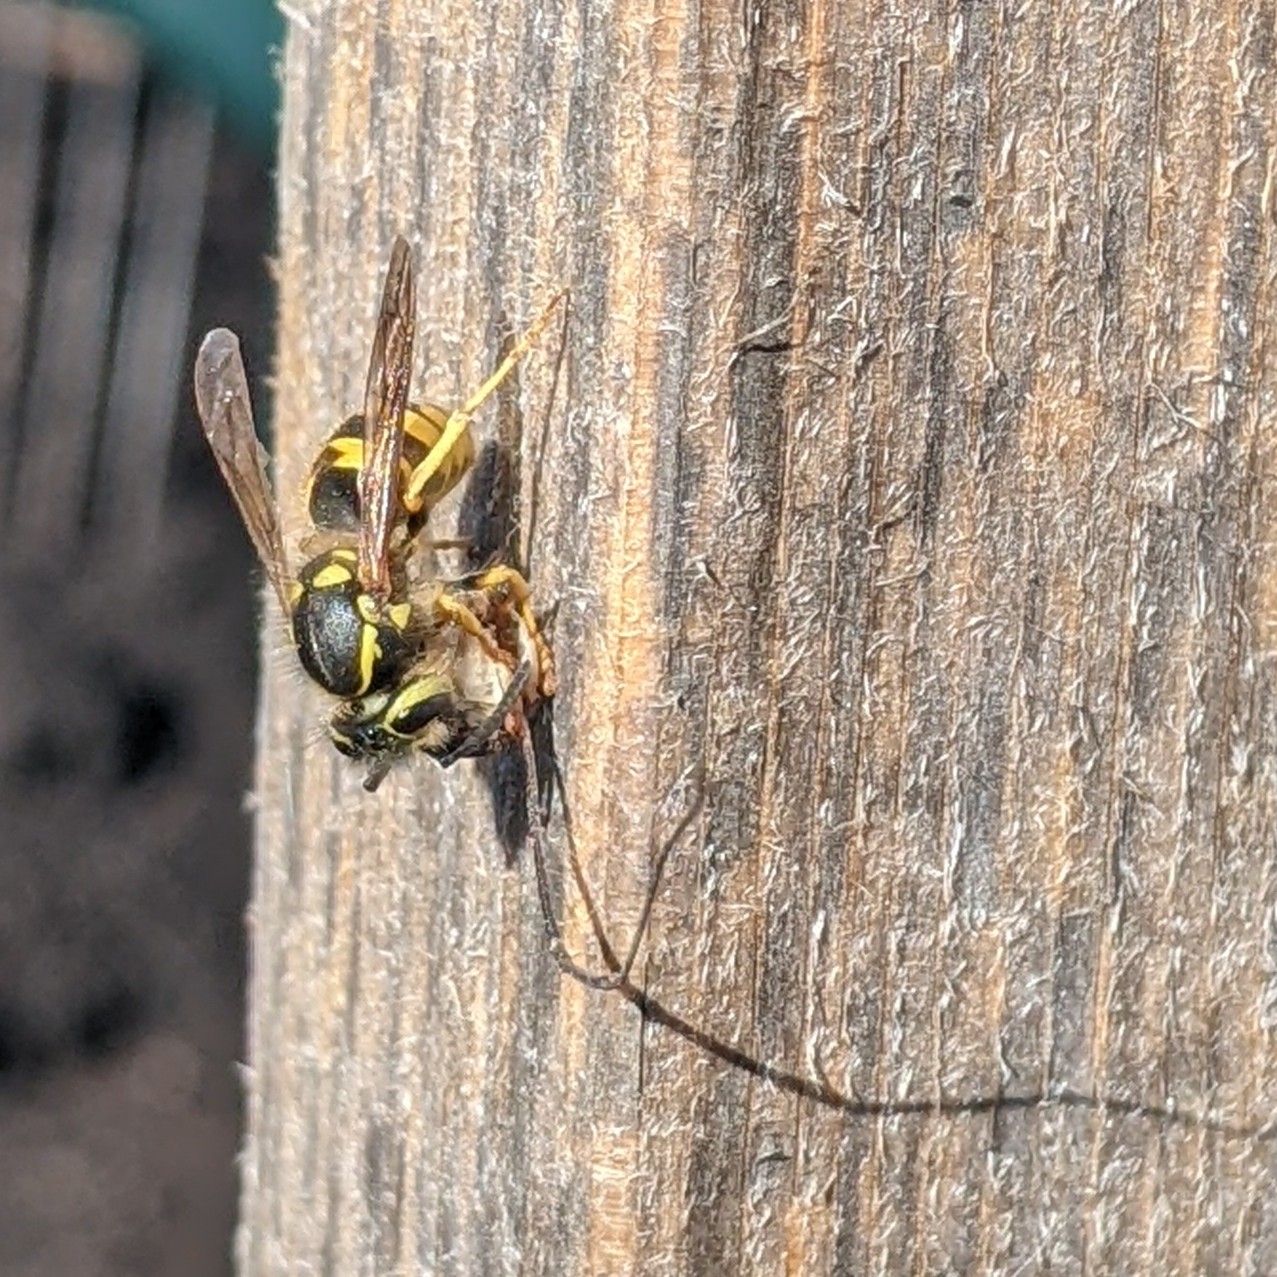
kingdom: Animalia
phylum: Arthropoda
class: Insecta
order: Hymenoptera
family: Vespidae
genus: Vespula
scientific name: Vespula pensylvanica
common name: Western yellowjacket
